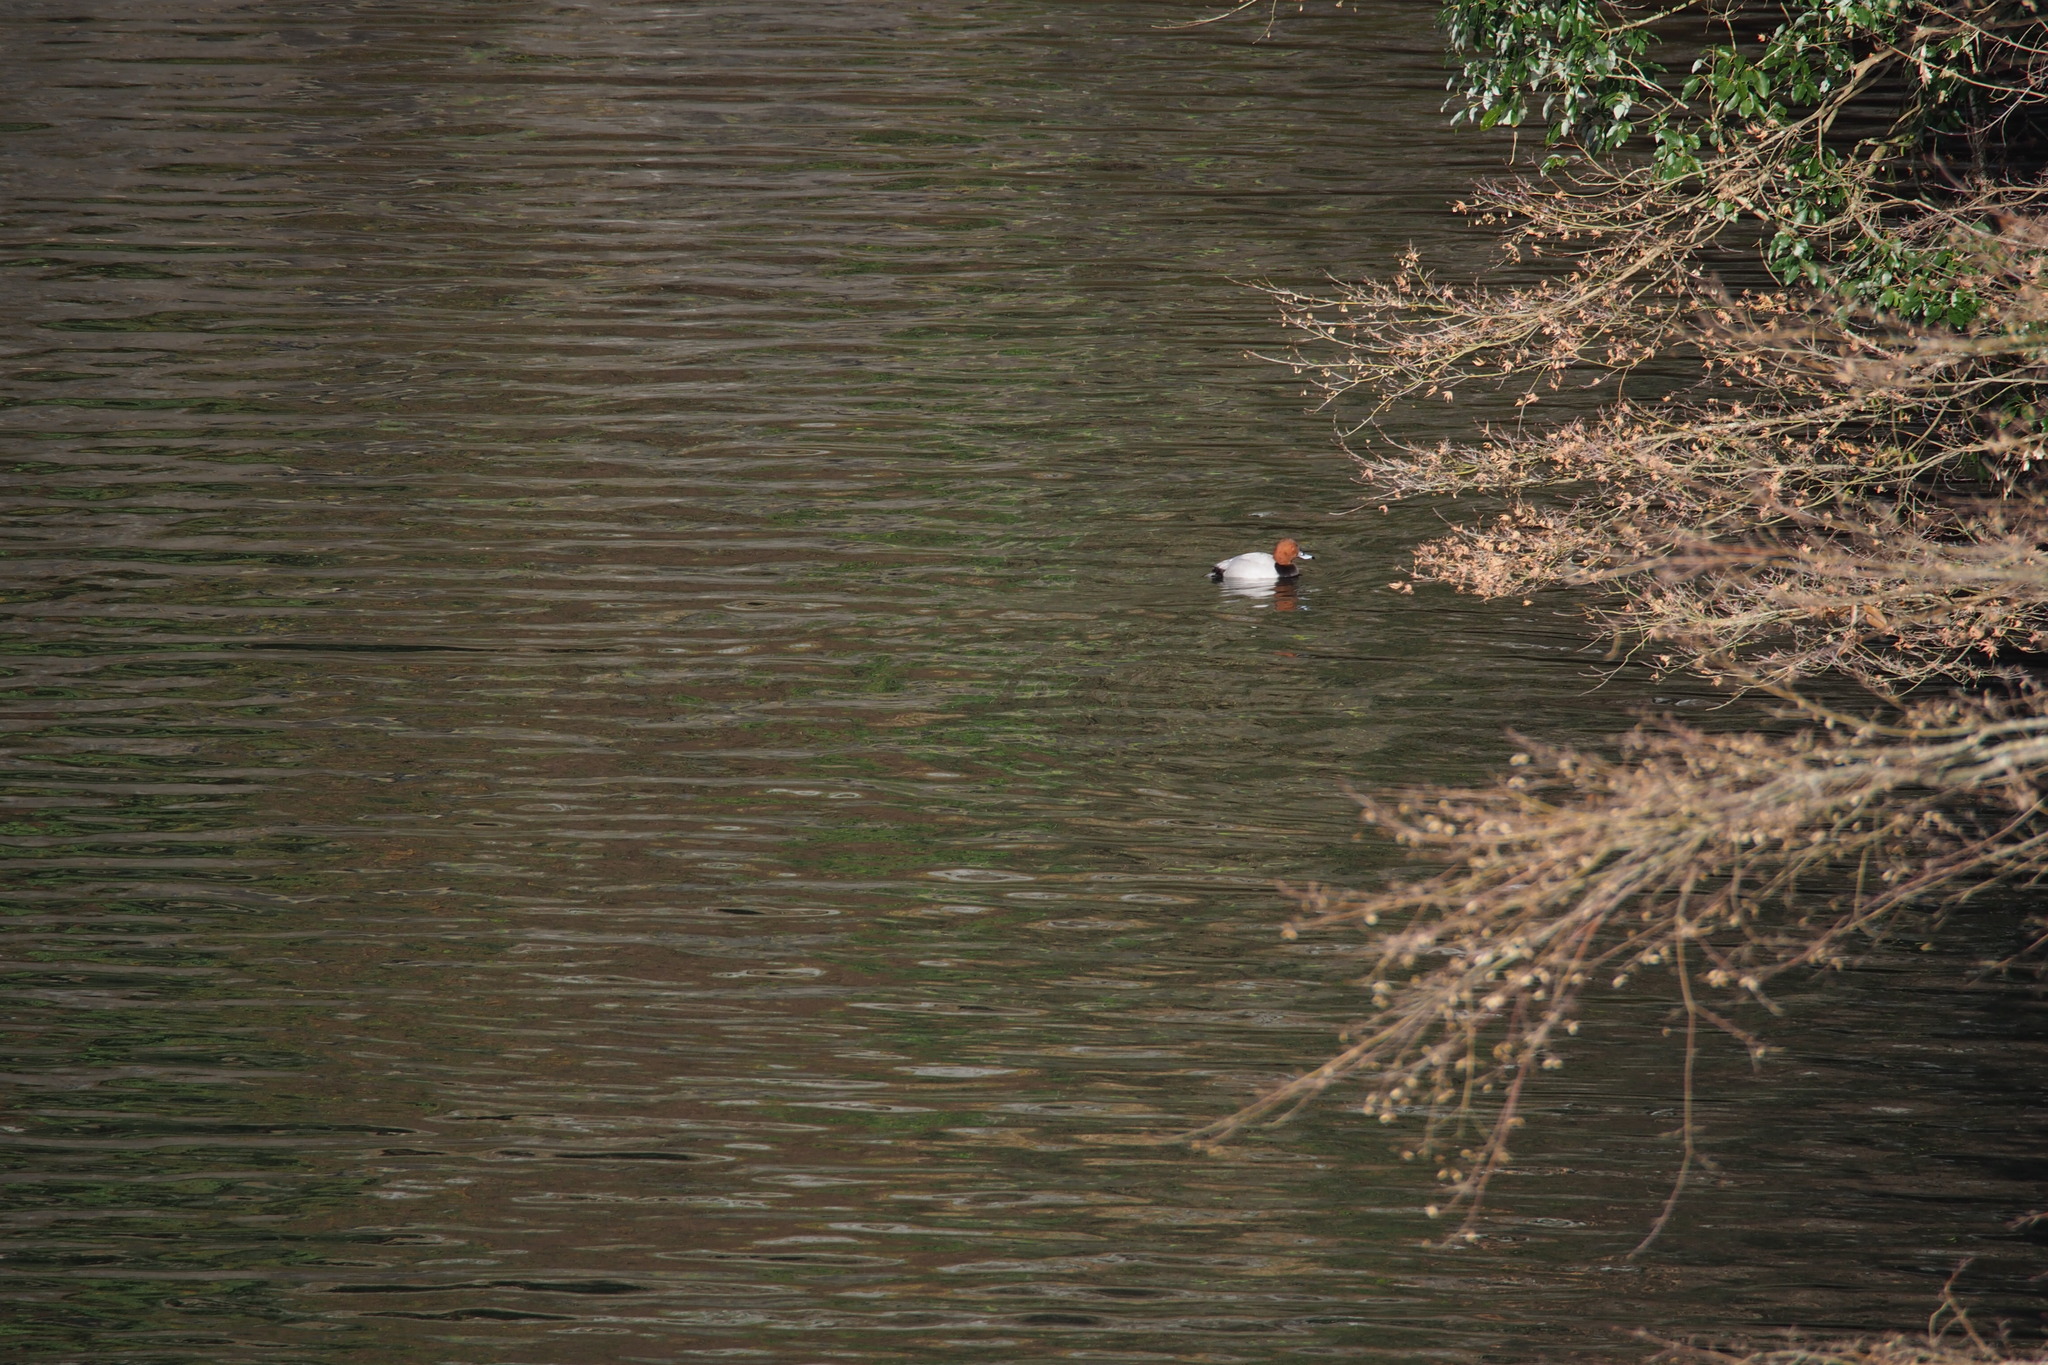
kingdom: Animalia
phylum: Chordata
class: Aves
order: Anseriformes
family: Anatidae
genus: Aythya
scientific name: Aythya ferina
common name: Common pochard
